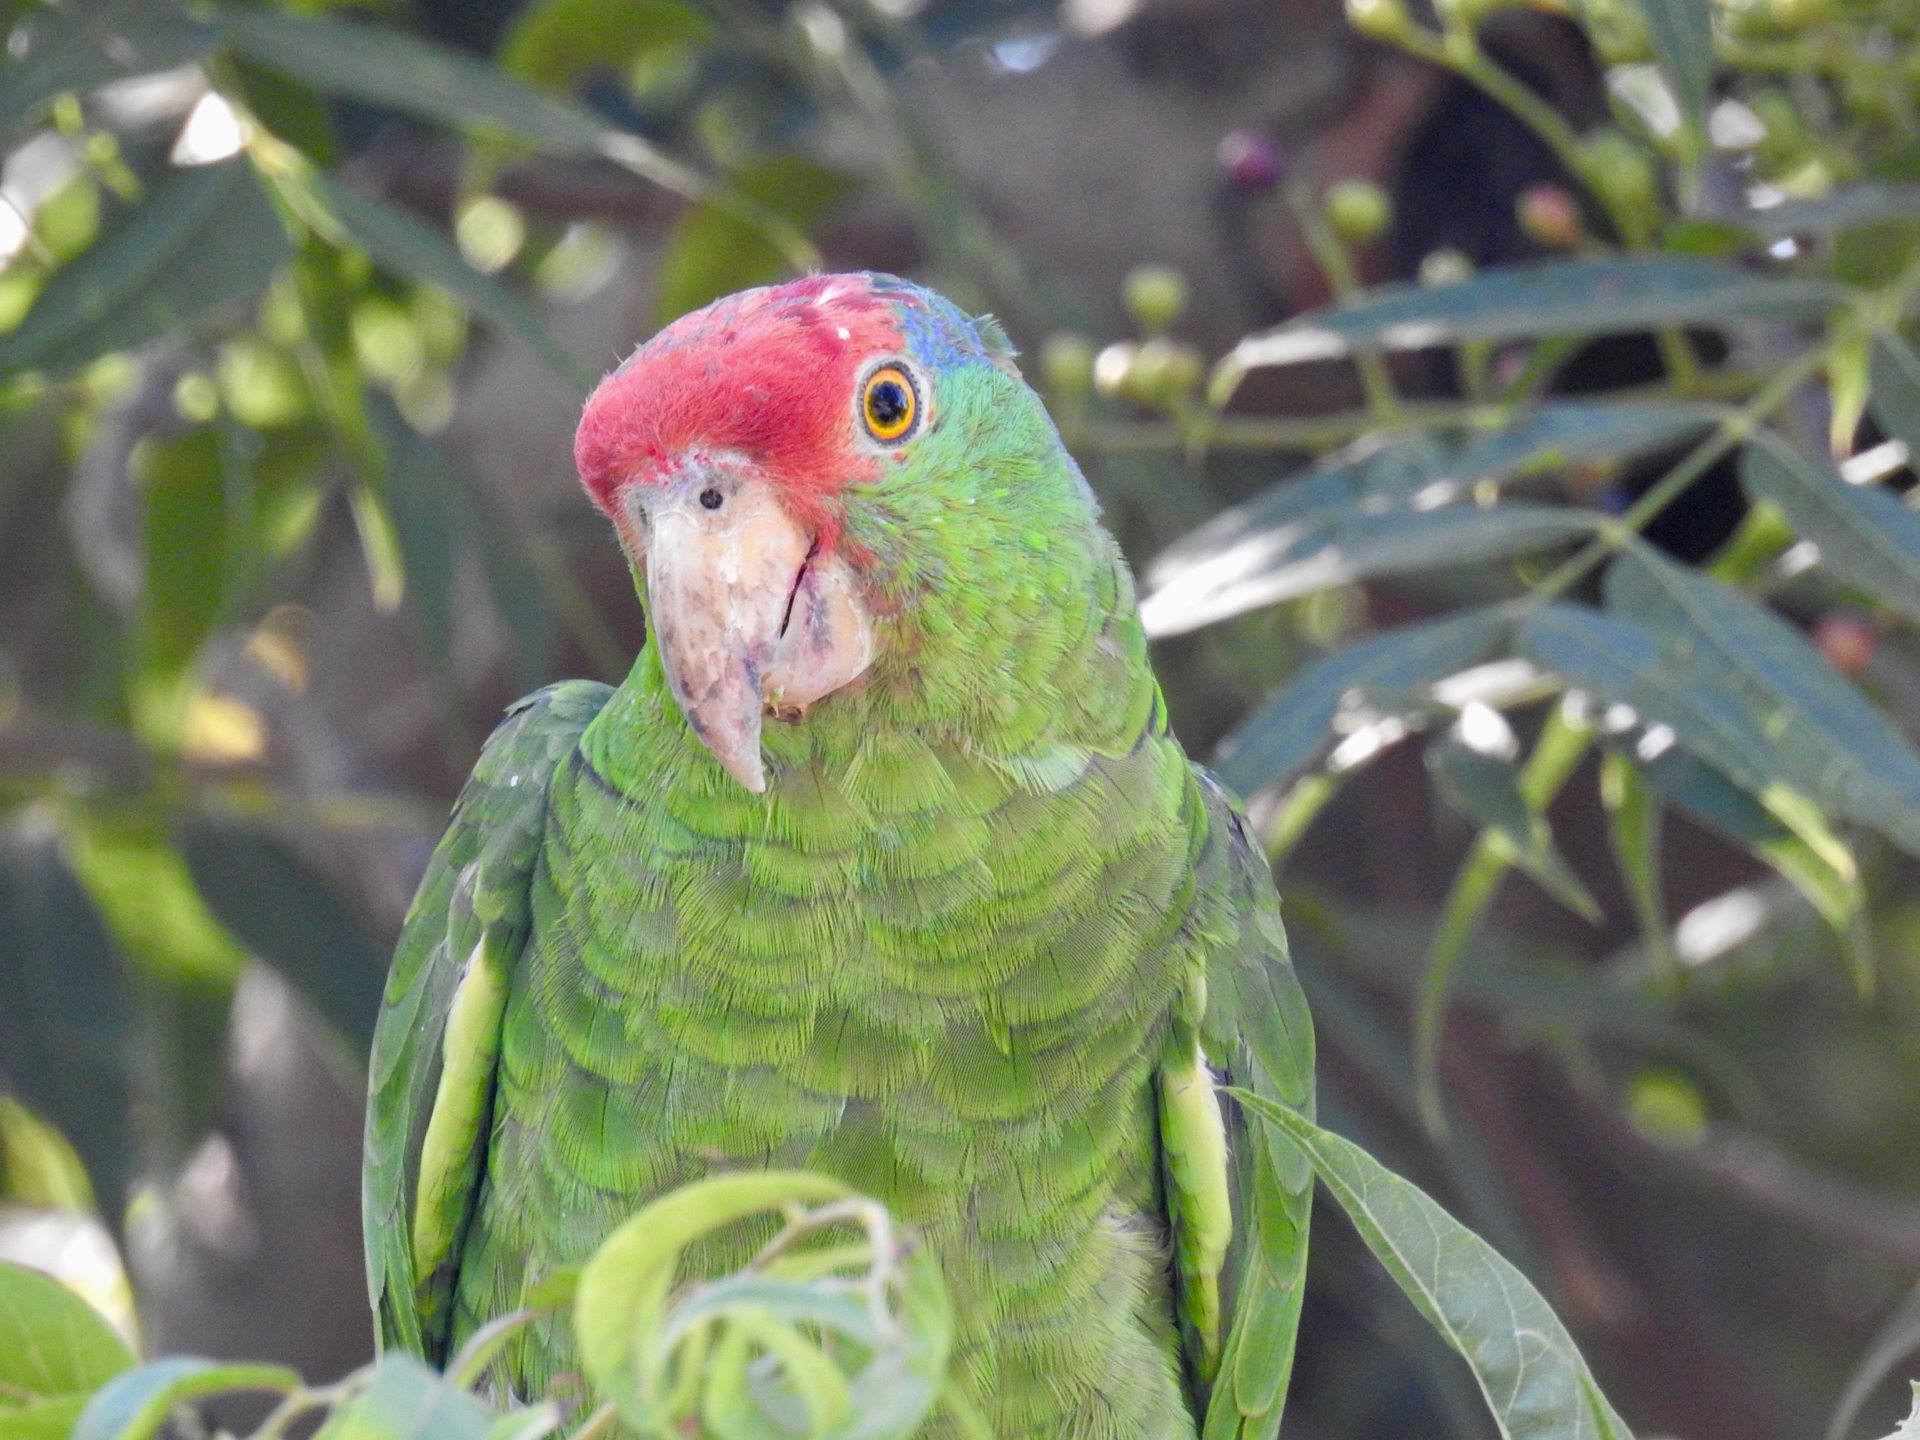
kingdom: Animalia
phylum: Chordata
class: Aves
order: Psittaciformes
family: Psittacidae
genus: Amazona
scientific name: Amazona viridigenalis
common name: Red-crowned amazon
